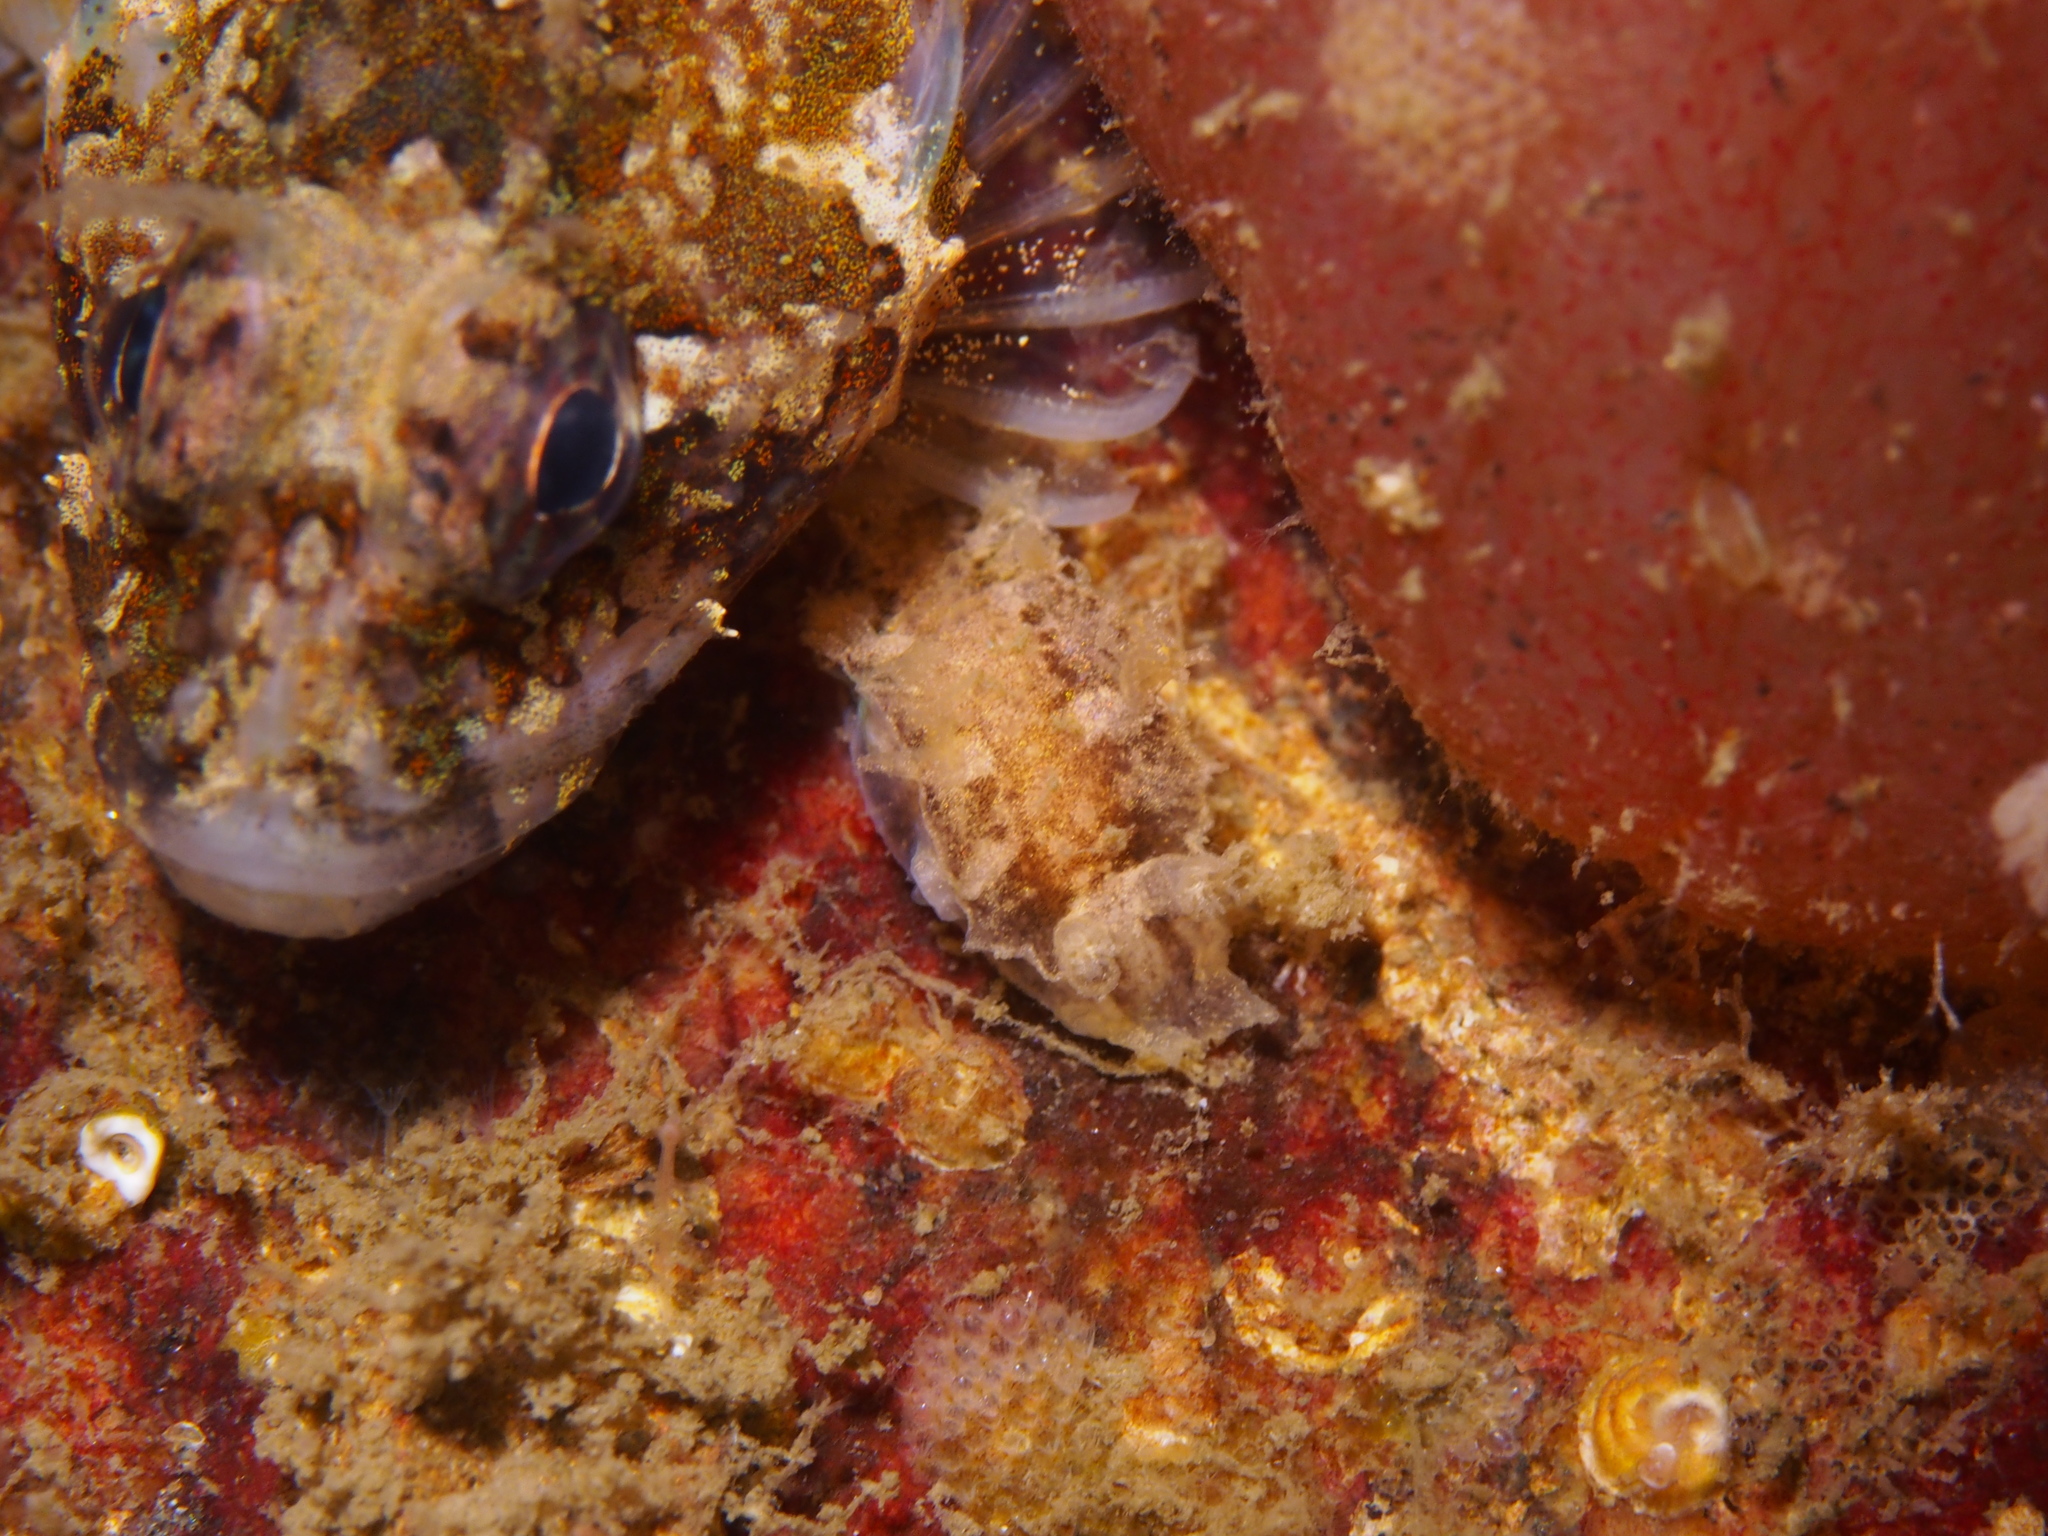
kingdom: Animalia
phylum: Mollusca
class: Gastropoda
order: Nudibranchia
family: Tritoniidae
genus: Duvaucelia
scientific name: Duvaucelia plebeia
